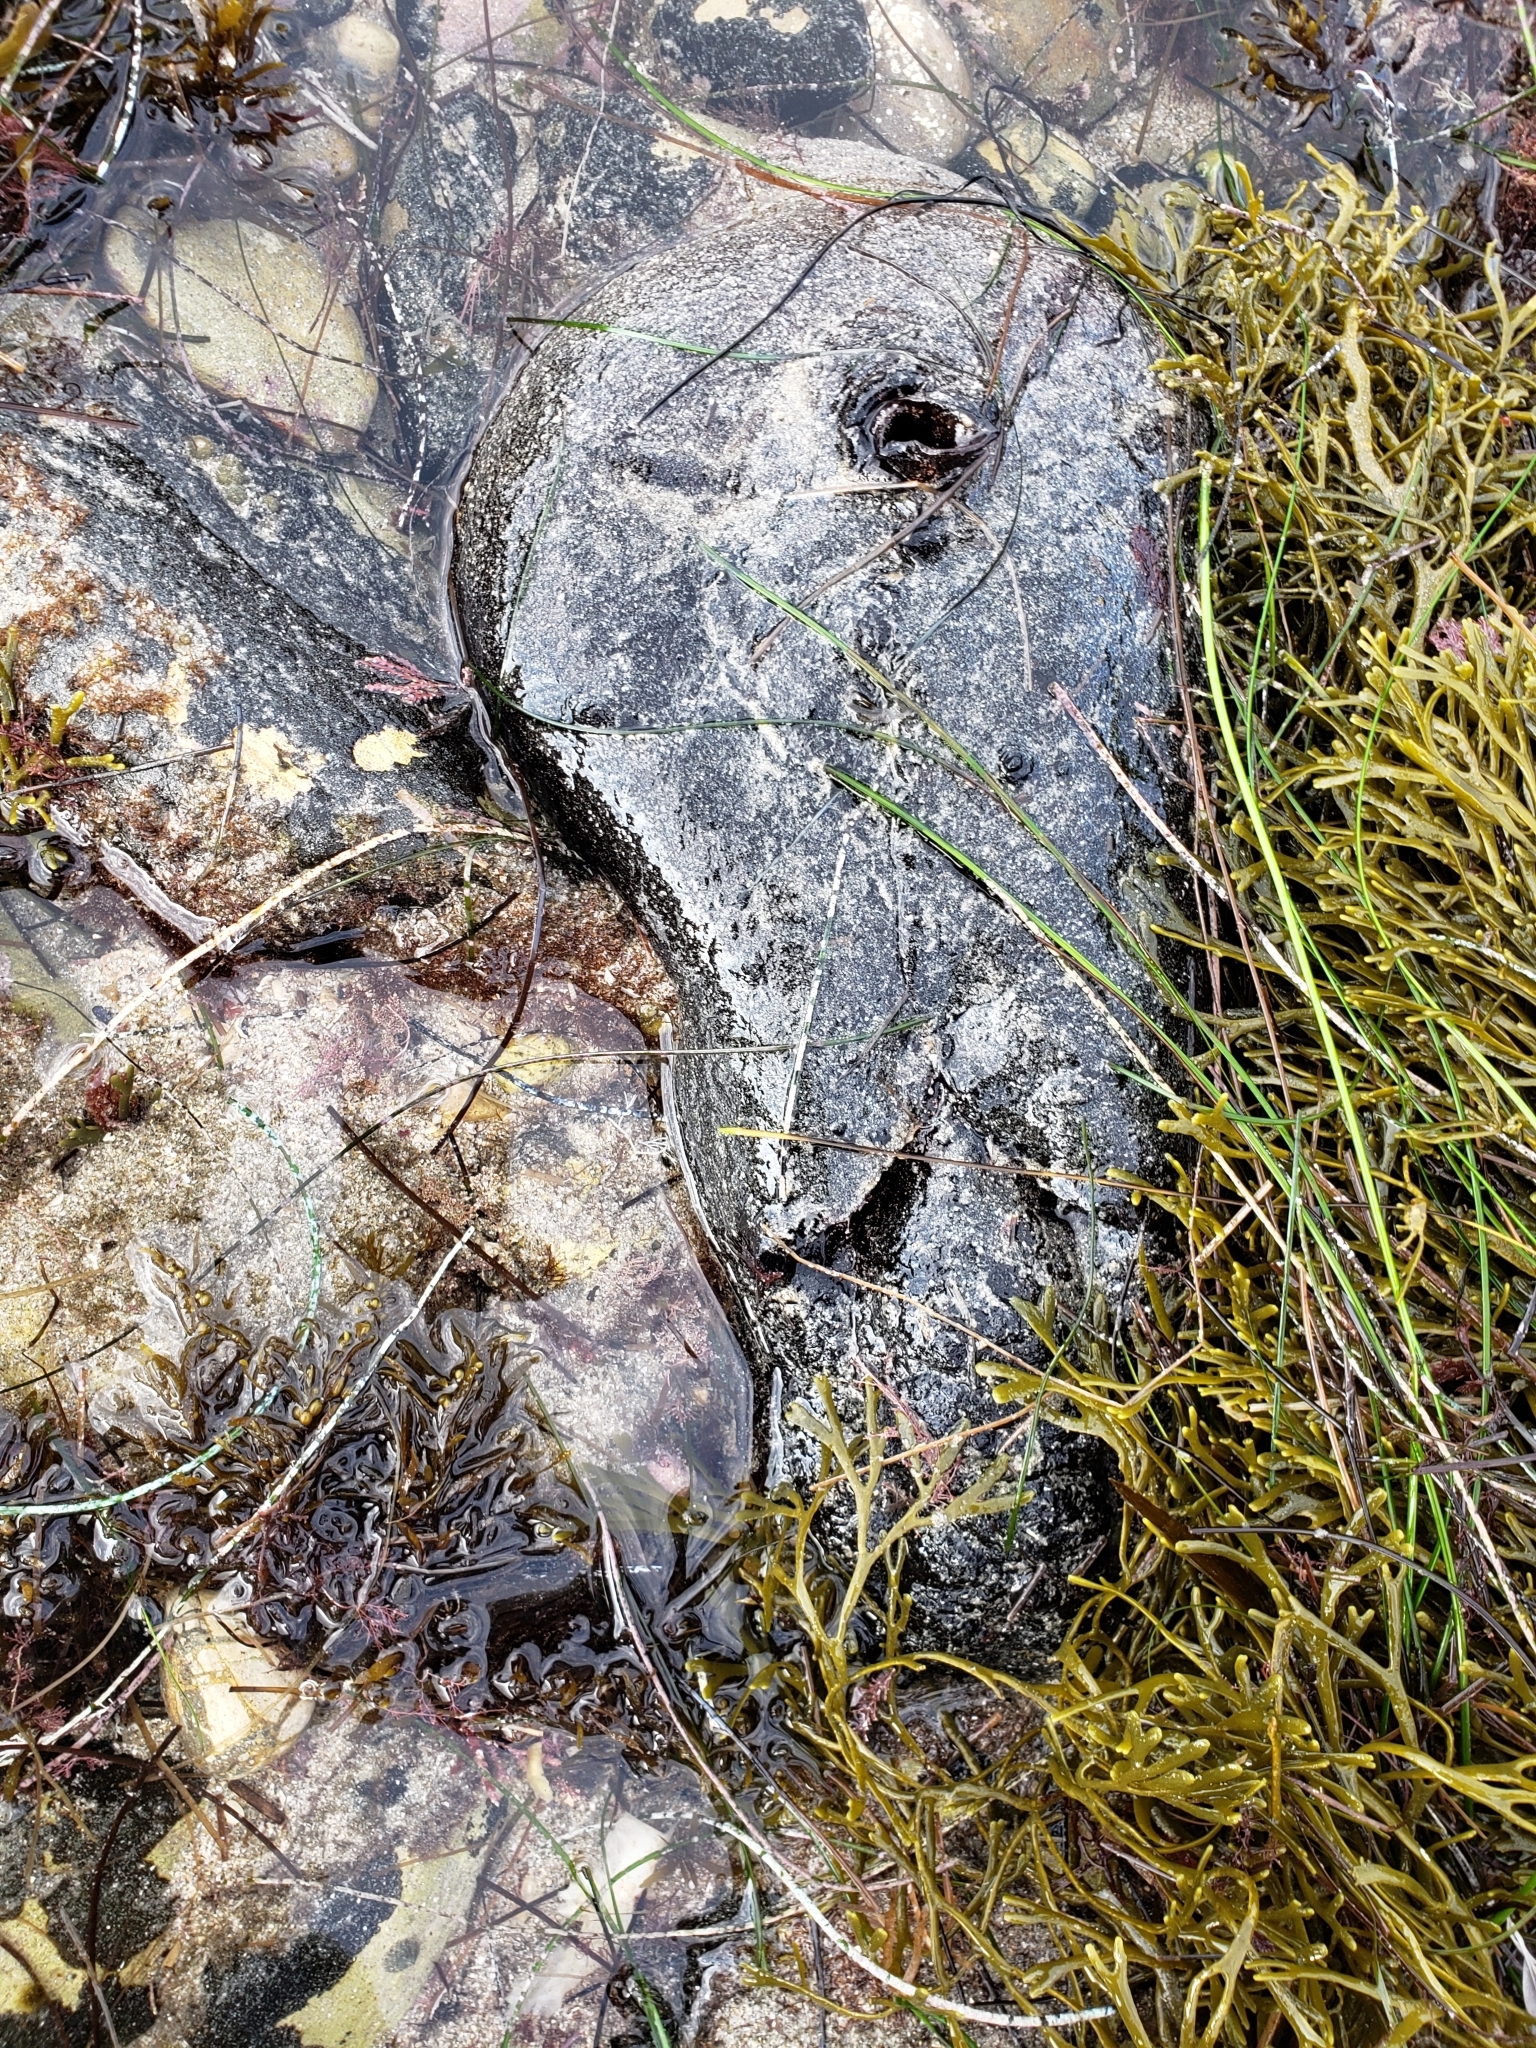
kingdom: Animalia
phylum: Mollusca
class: Gastropoda
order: Aplysiida
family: Aplysiidae
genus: Aplysia
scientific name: Aplysia vaccaria
